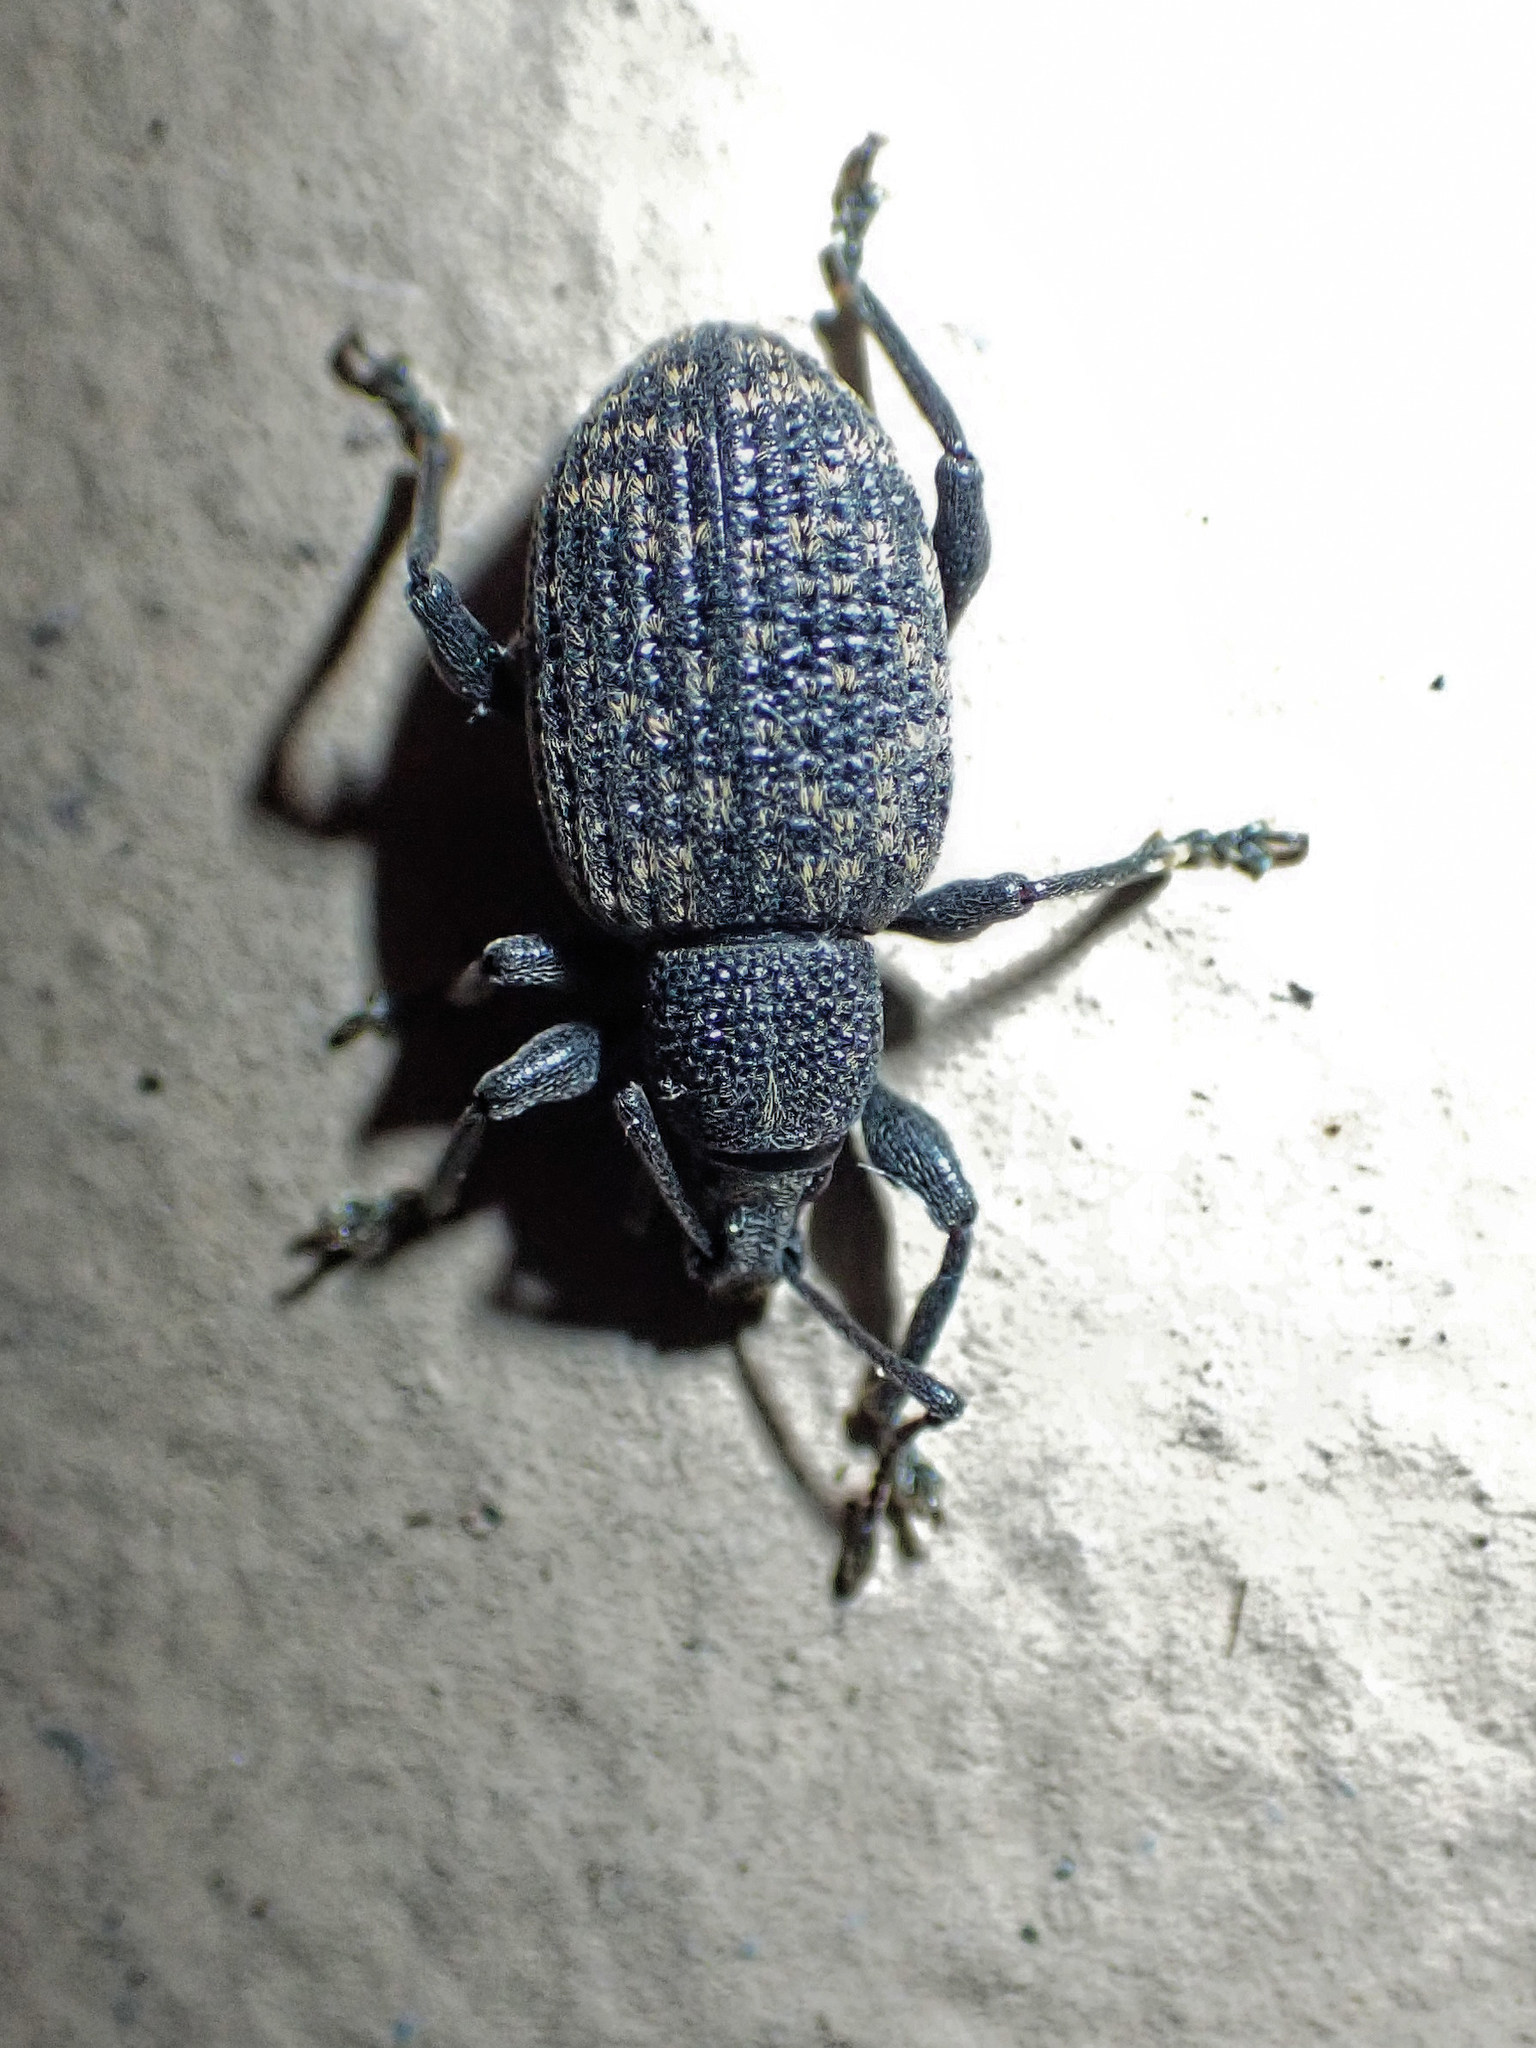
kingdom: Animalia
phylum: Arthropoda
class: Insecta
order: Coleoptera
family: Curculionidae
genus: Otiorhynchus
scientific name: Otiorhynchus sulcatus
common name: Black vine weevil
